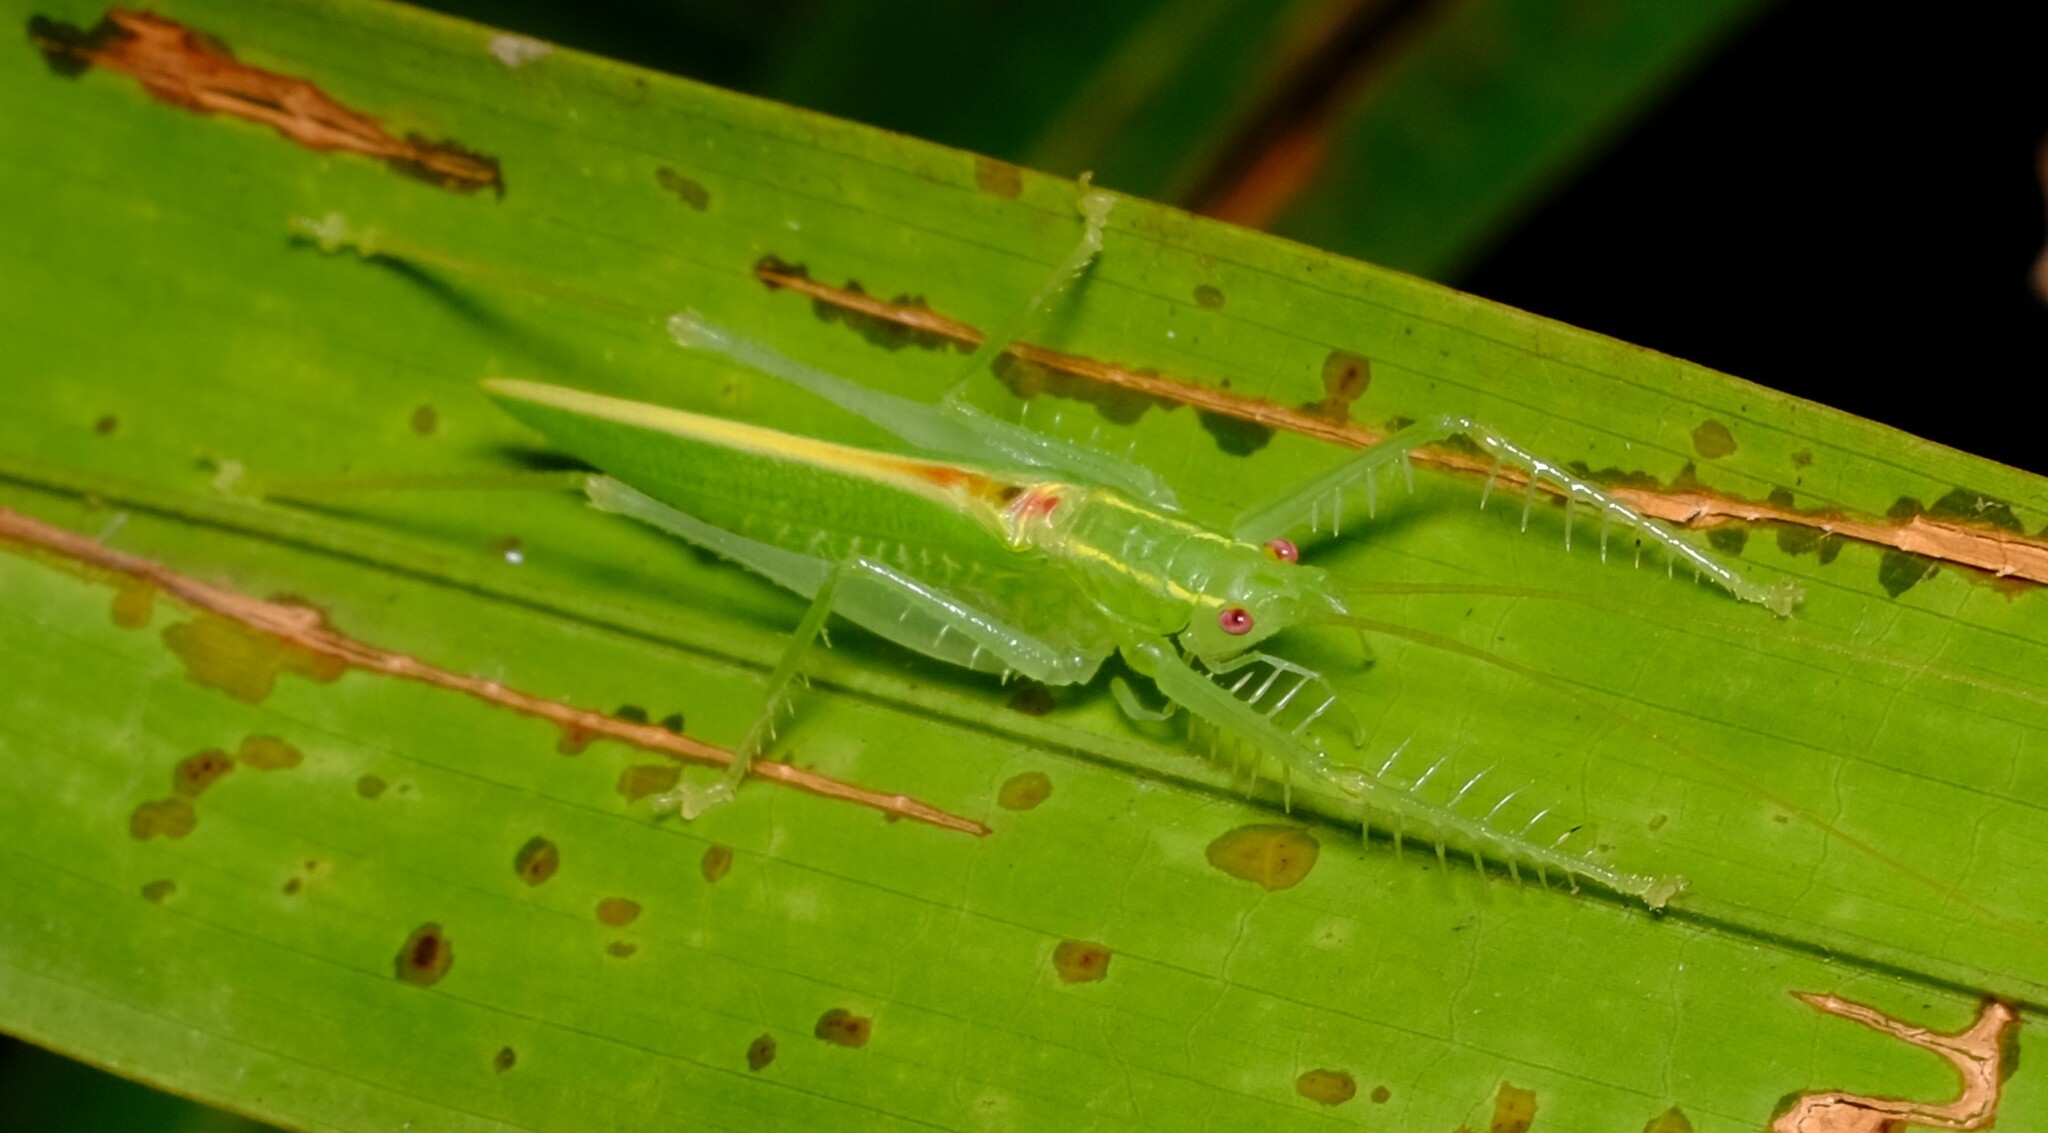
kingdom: Animalia
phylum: Arthropoda
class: Insecta
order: Orthoptera
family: Tettigoniidae
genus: Paraphisis
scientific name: Paraphisis tryonensis
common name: Tryon island spider katydid
